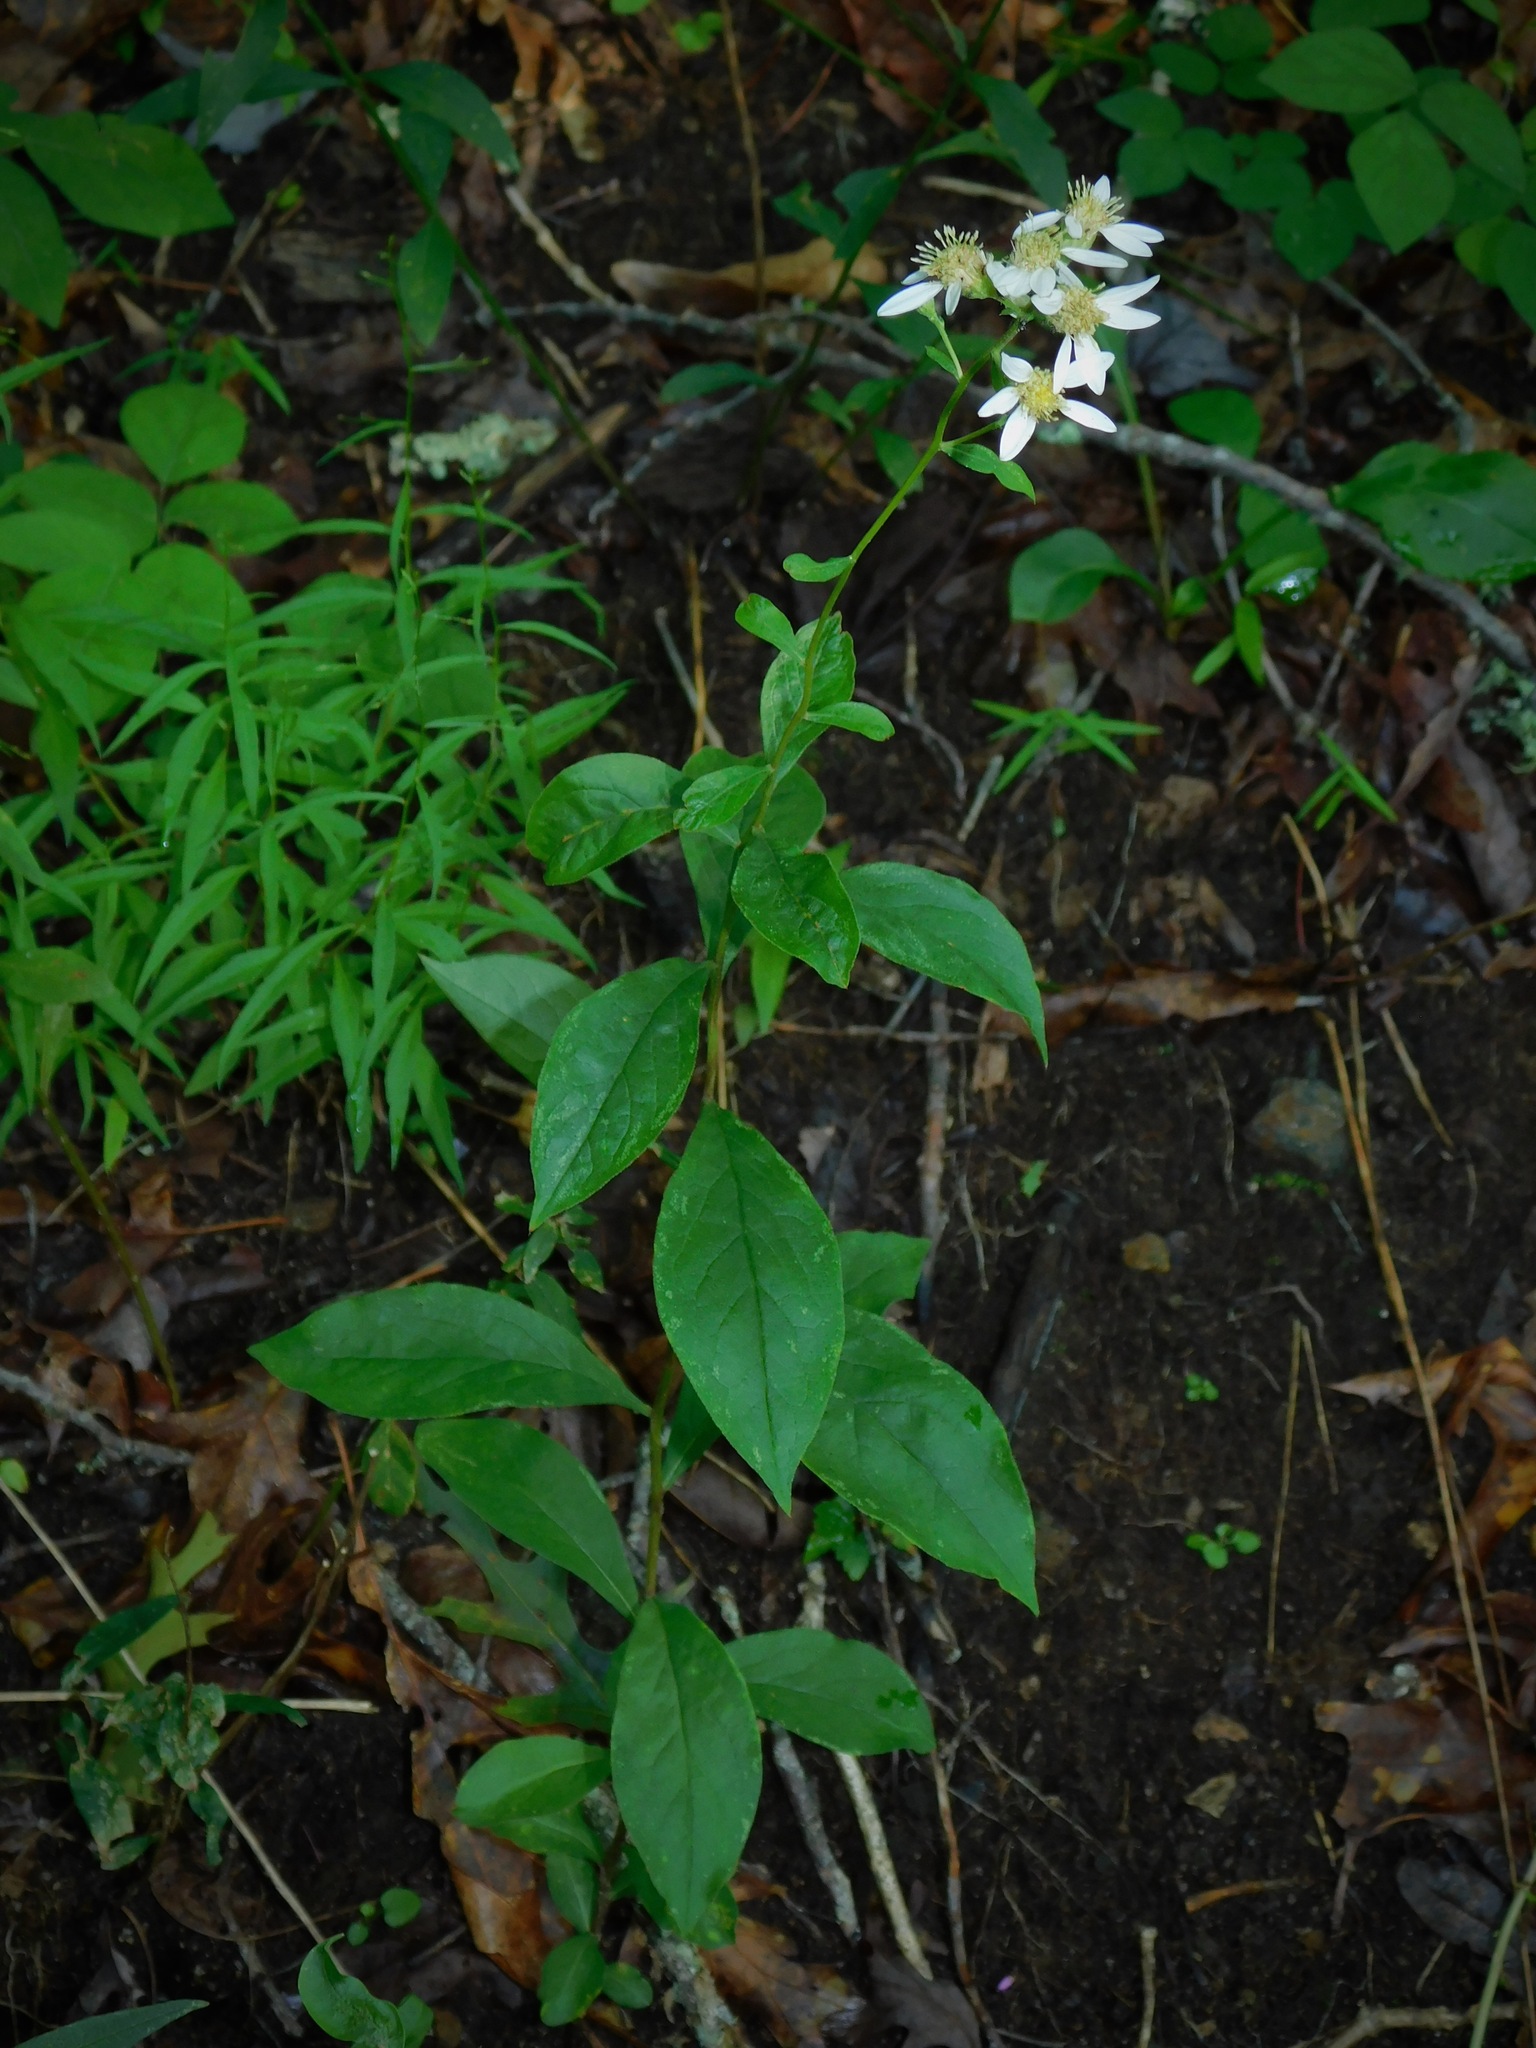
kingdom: Plantae
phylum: Tracheophyta
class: Magnoliopsida
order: Asterales
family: Asteraceae
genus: Doellingeria
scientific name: Doellingeria umbellata
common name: Flat-top white aster
